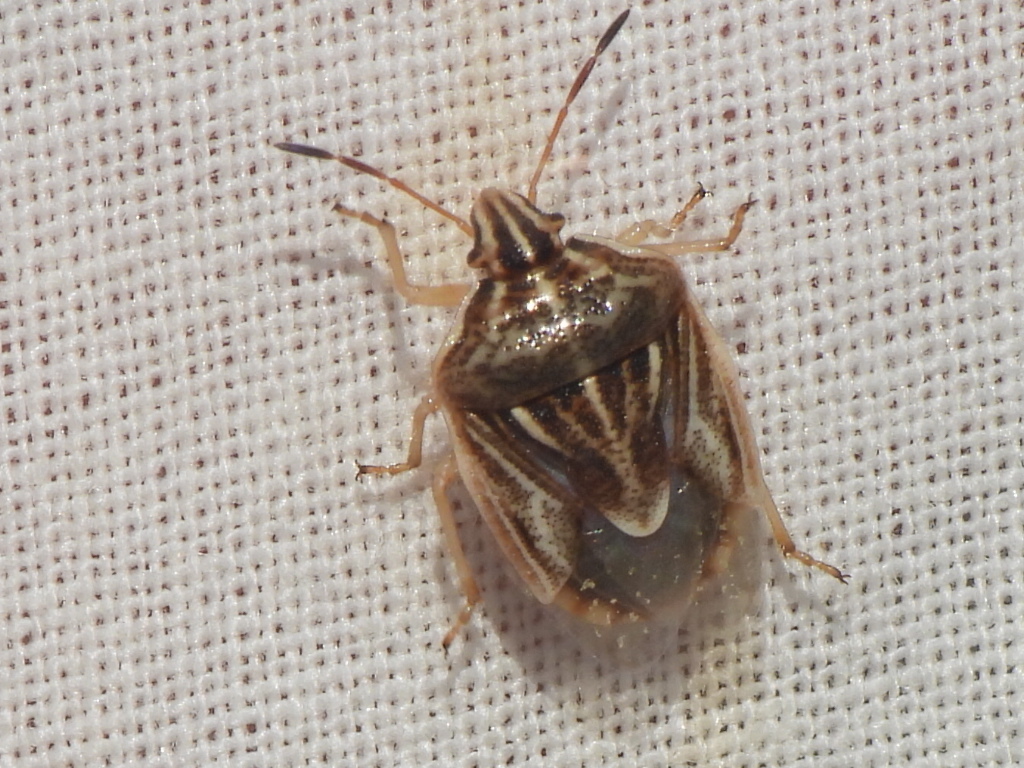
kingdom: Animalia
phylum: Arthropoda
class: Insecta
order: Hemiptera
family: Pentatomidae
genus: Trichopepla
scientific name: Trichopepla semivittata
